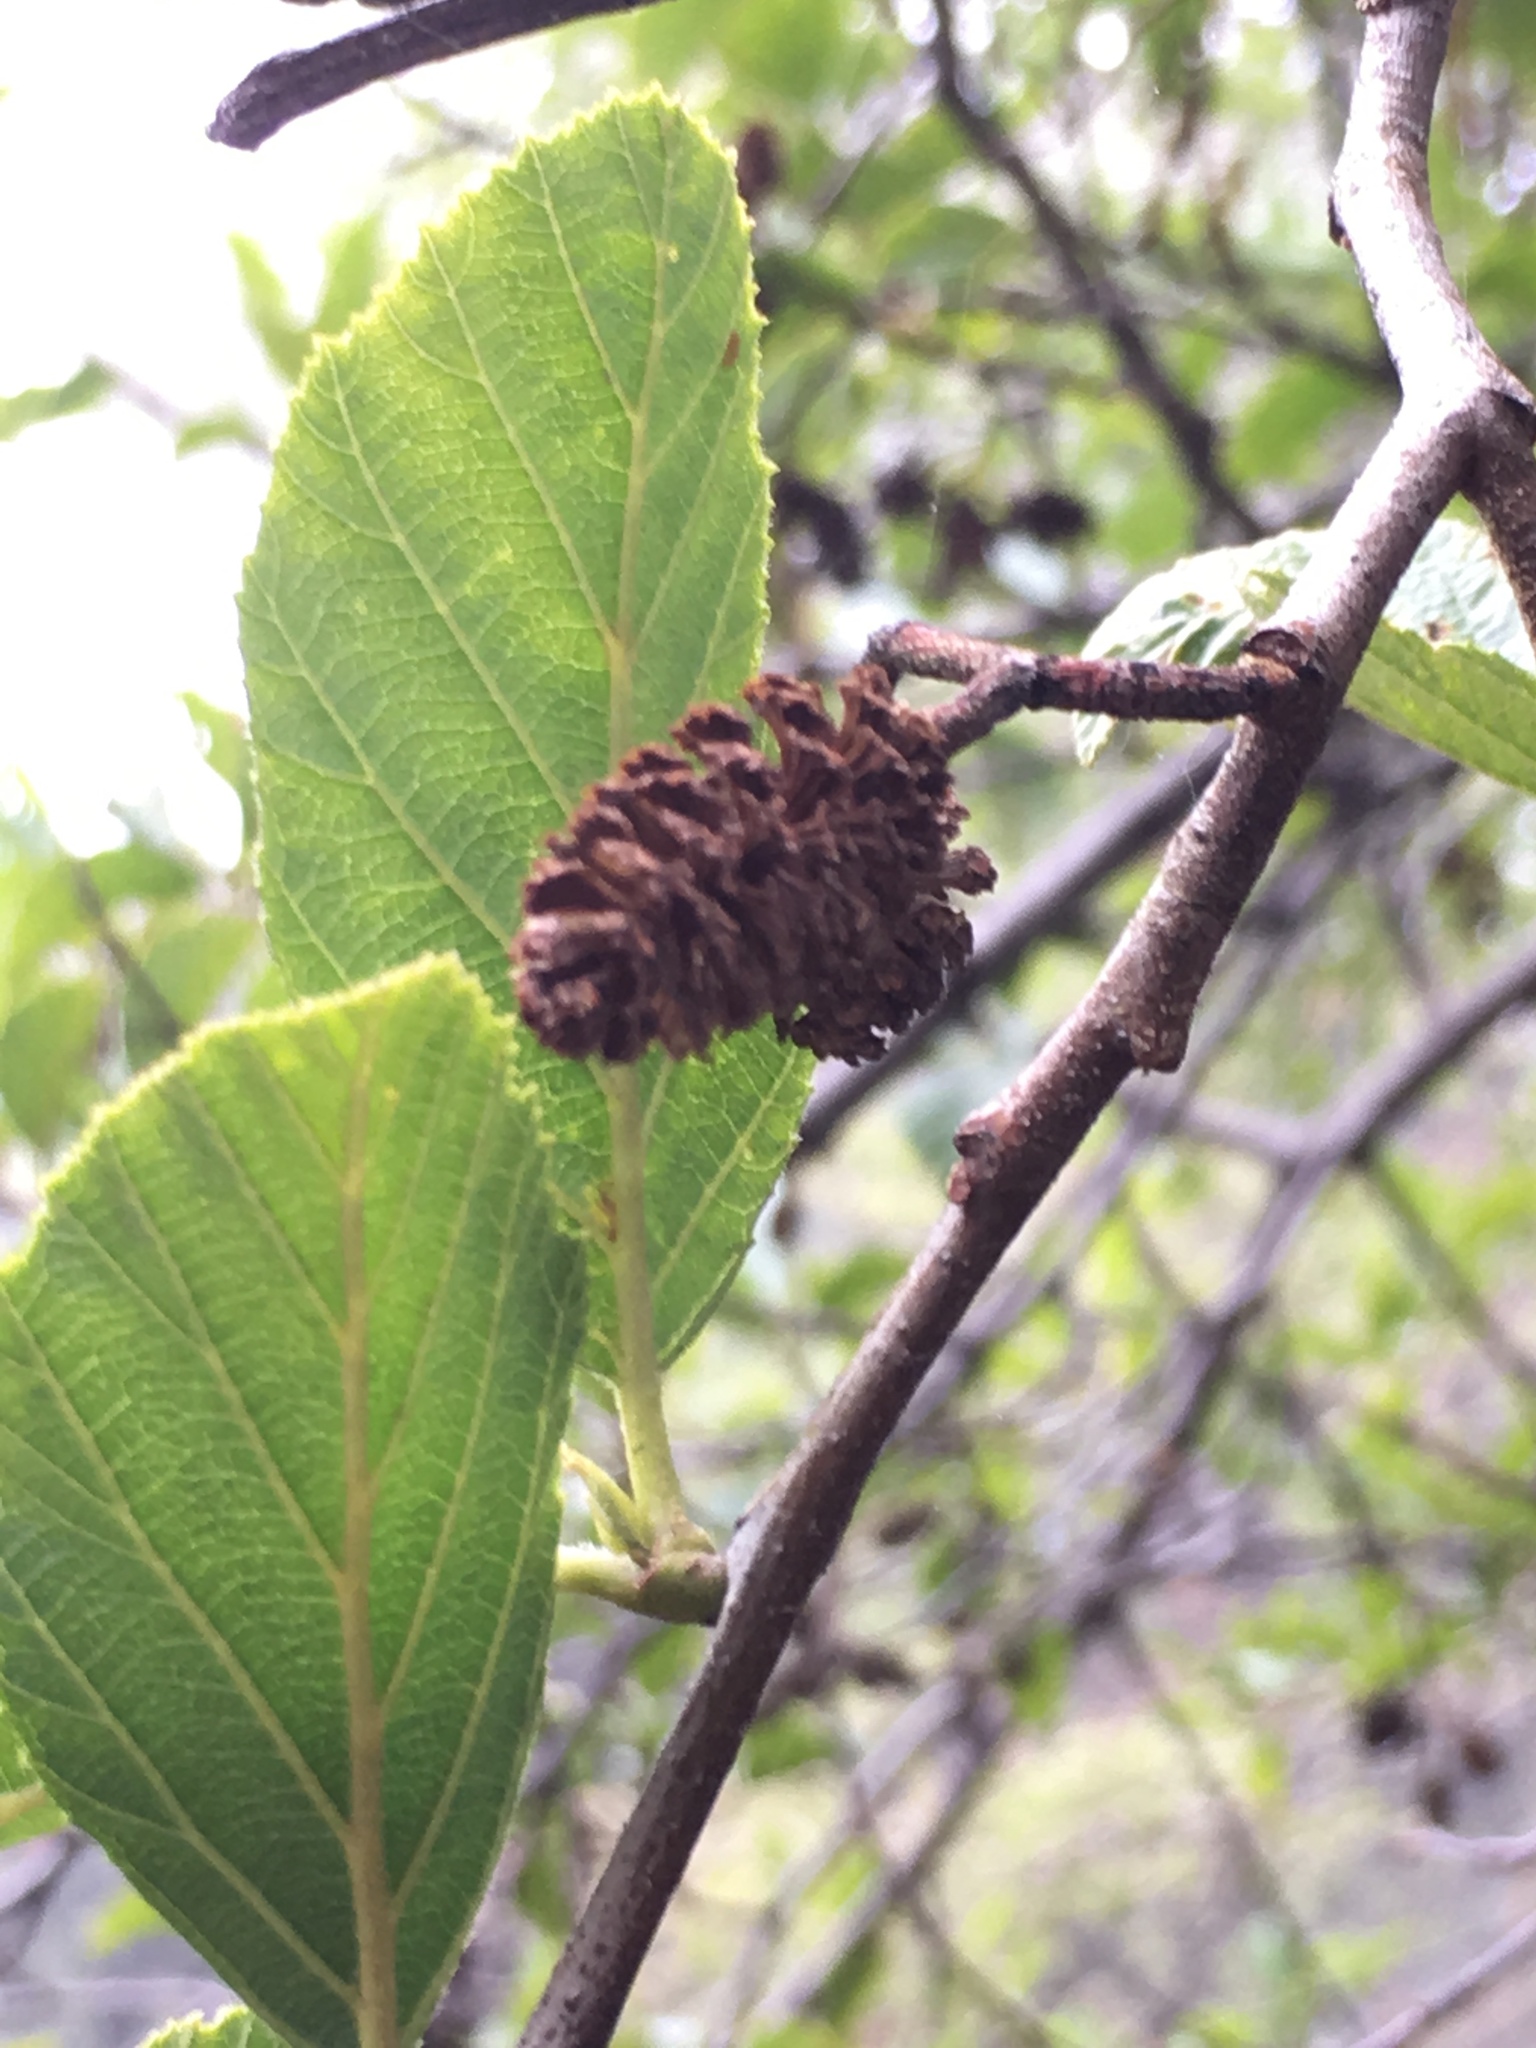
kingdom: Plantae
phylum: Tracheophyta
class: Magnoliopsida
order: Fagales
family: Betulaceae
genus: Alnus
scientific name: Alnus rhombifolia
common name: California alder
